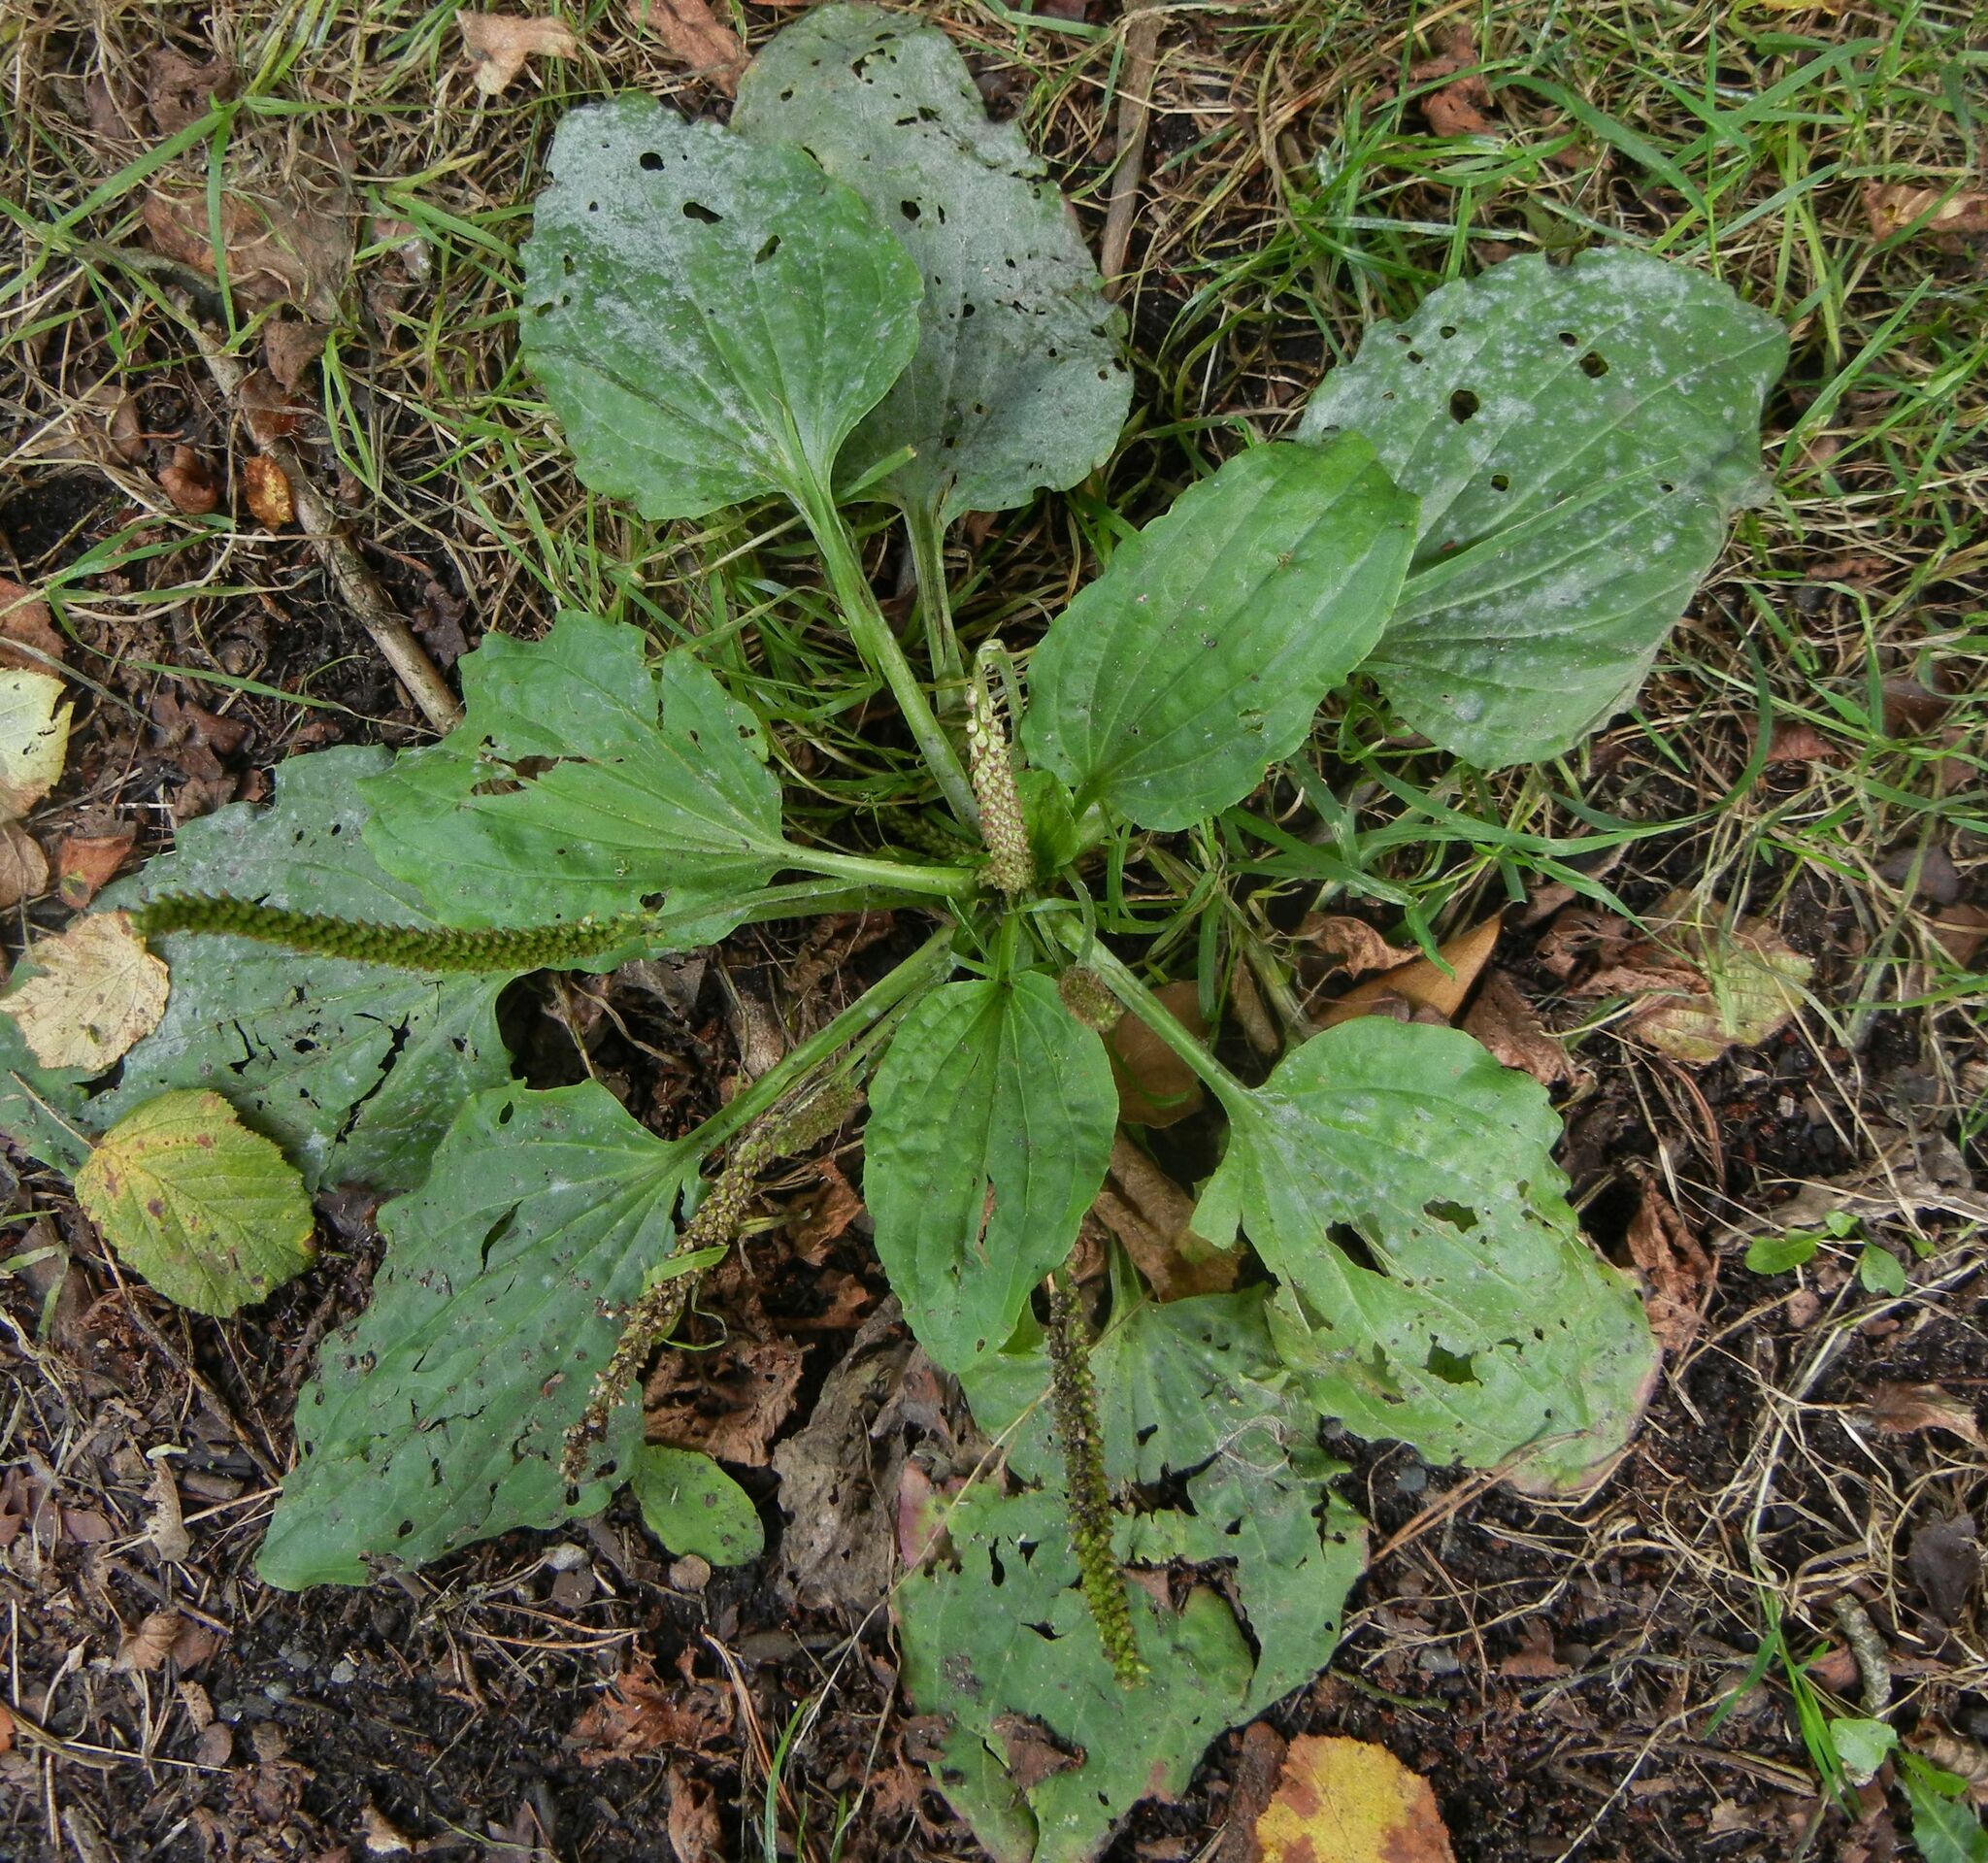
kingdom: Plantae
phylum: Tracheophyta
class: Magnoliopsida
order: Lamiales
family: Plantaginaceae
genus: Plantago
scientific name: Plantago major
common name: Common plantain
